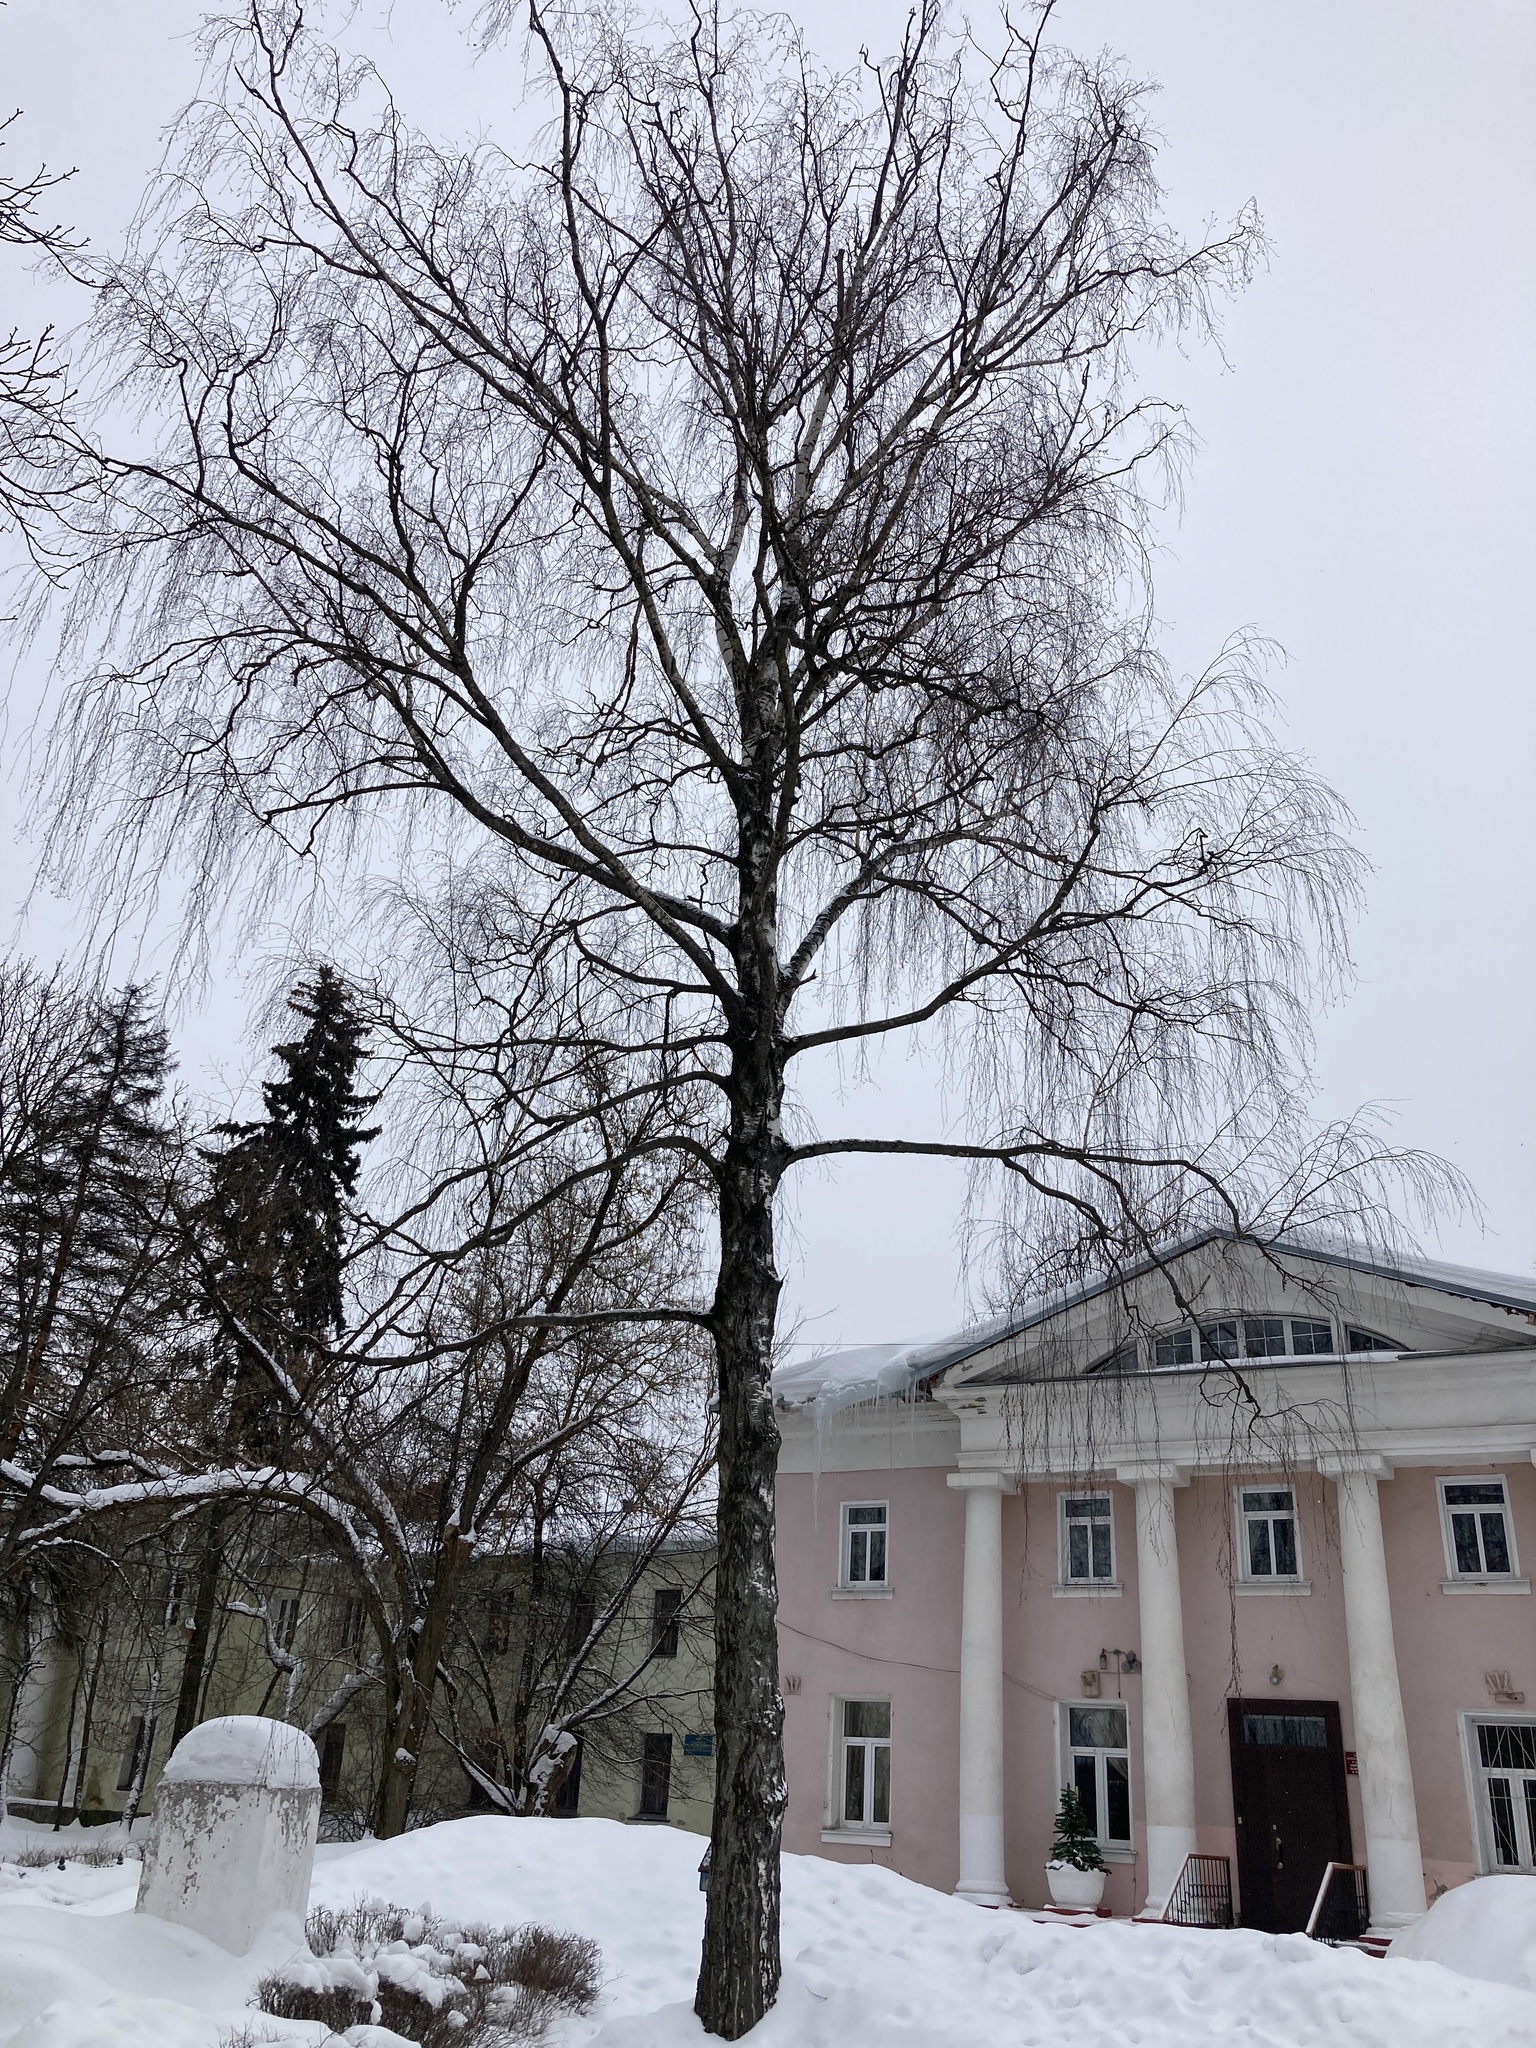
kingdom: Plantae
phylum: Tracheophyta
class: Magnoliopsida
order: Fagales
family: Betulaceae
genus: Betula
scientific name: Betula pendula
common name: Silver birch
